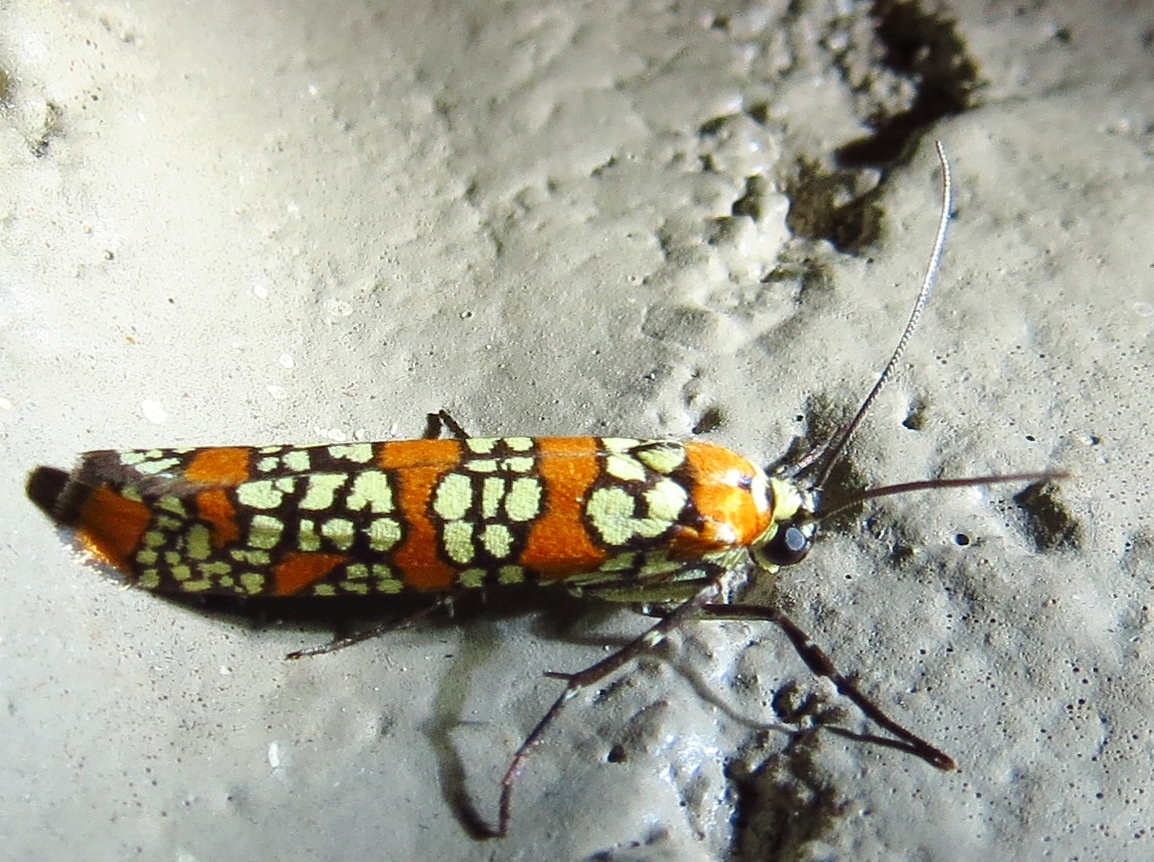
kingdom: Animalia
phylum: Arthropoda
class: Insecta
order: Lepidoptera
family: Attevidae
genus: Atteva
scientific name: Atteva punctella
